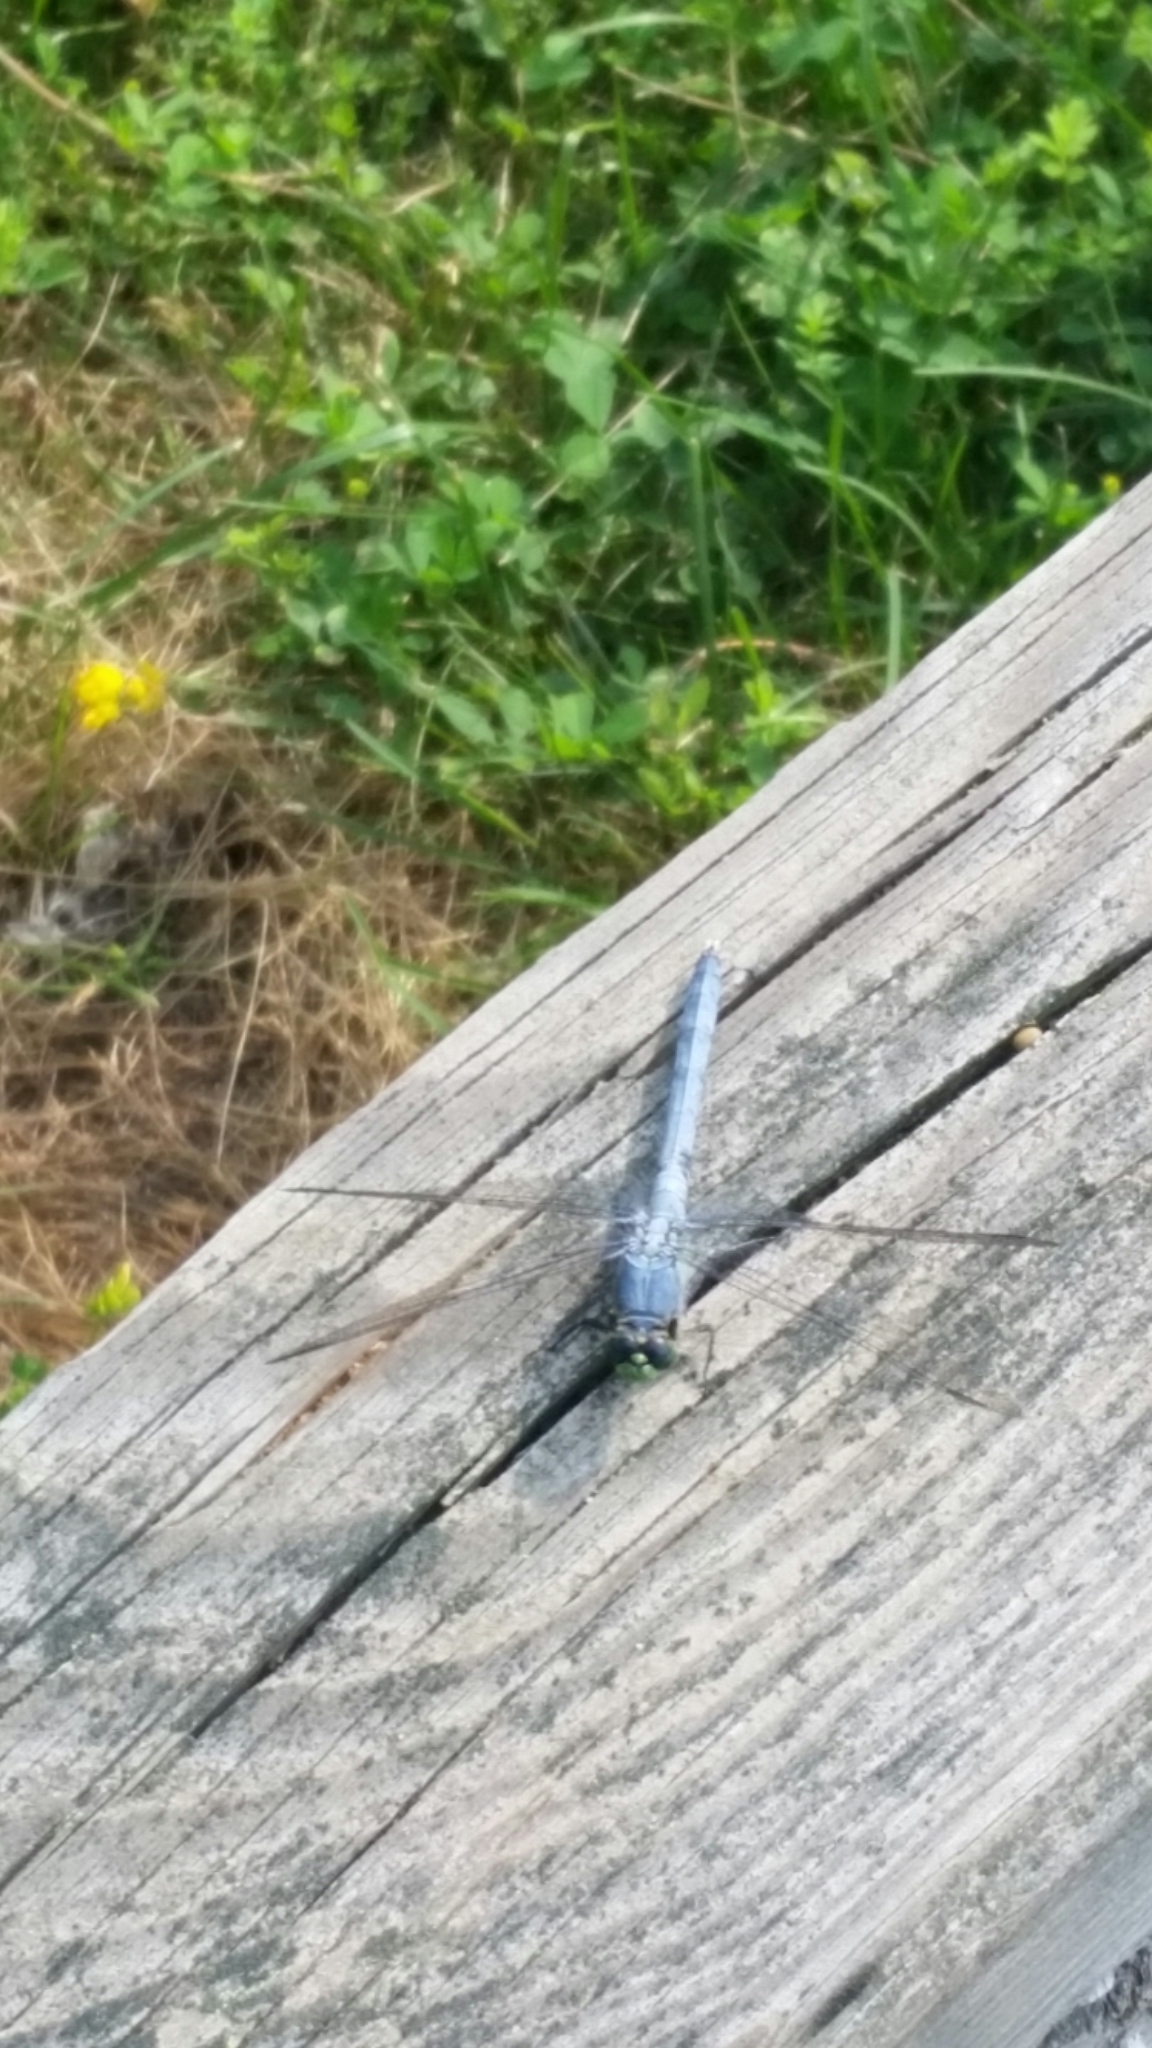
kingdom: Animalia
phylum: Arthropoda
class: Insecta
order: Odonata
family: Libellulidae
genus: Erythemis
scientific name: Erythemis simplicicollis
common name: Eastern pondhawk
